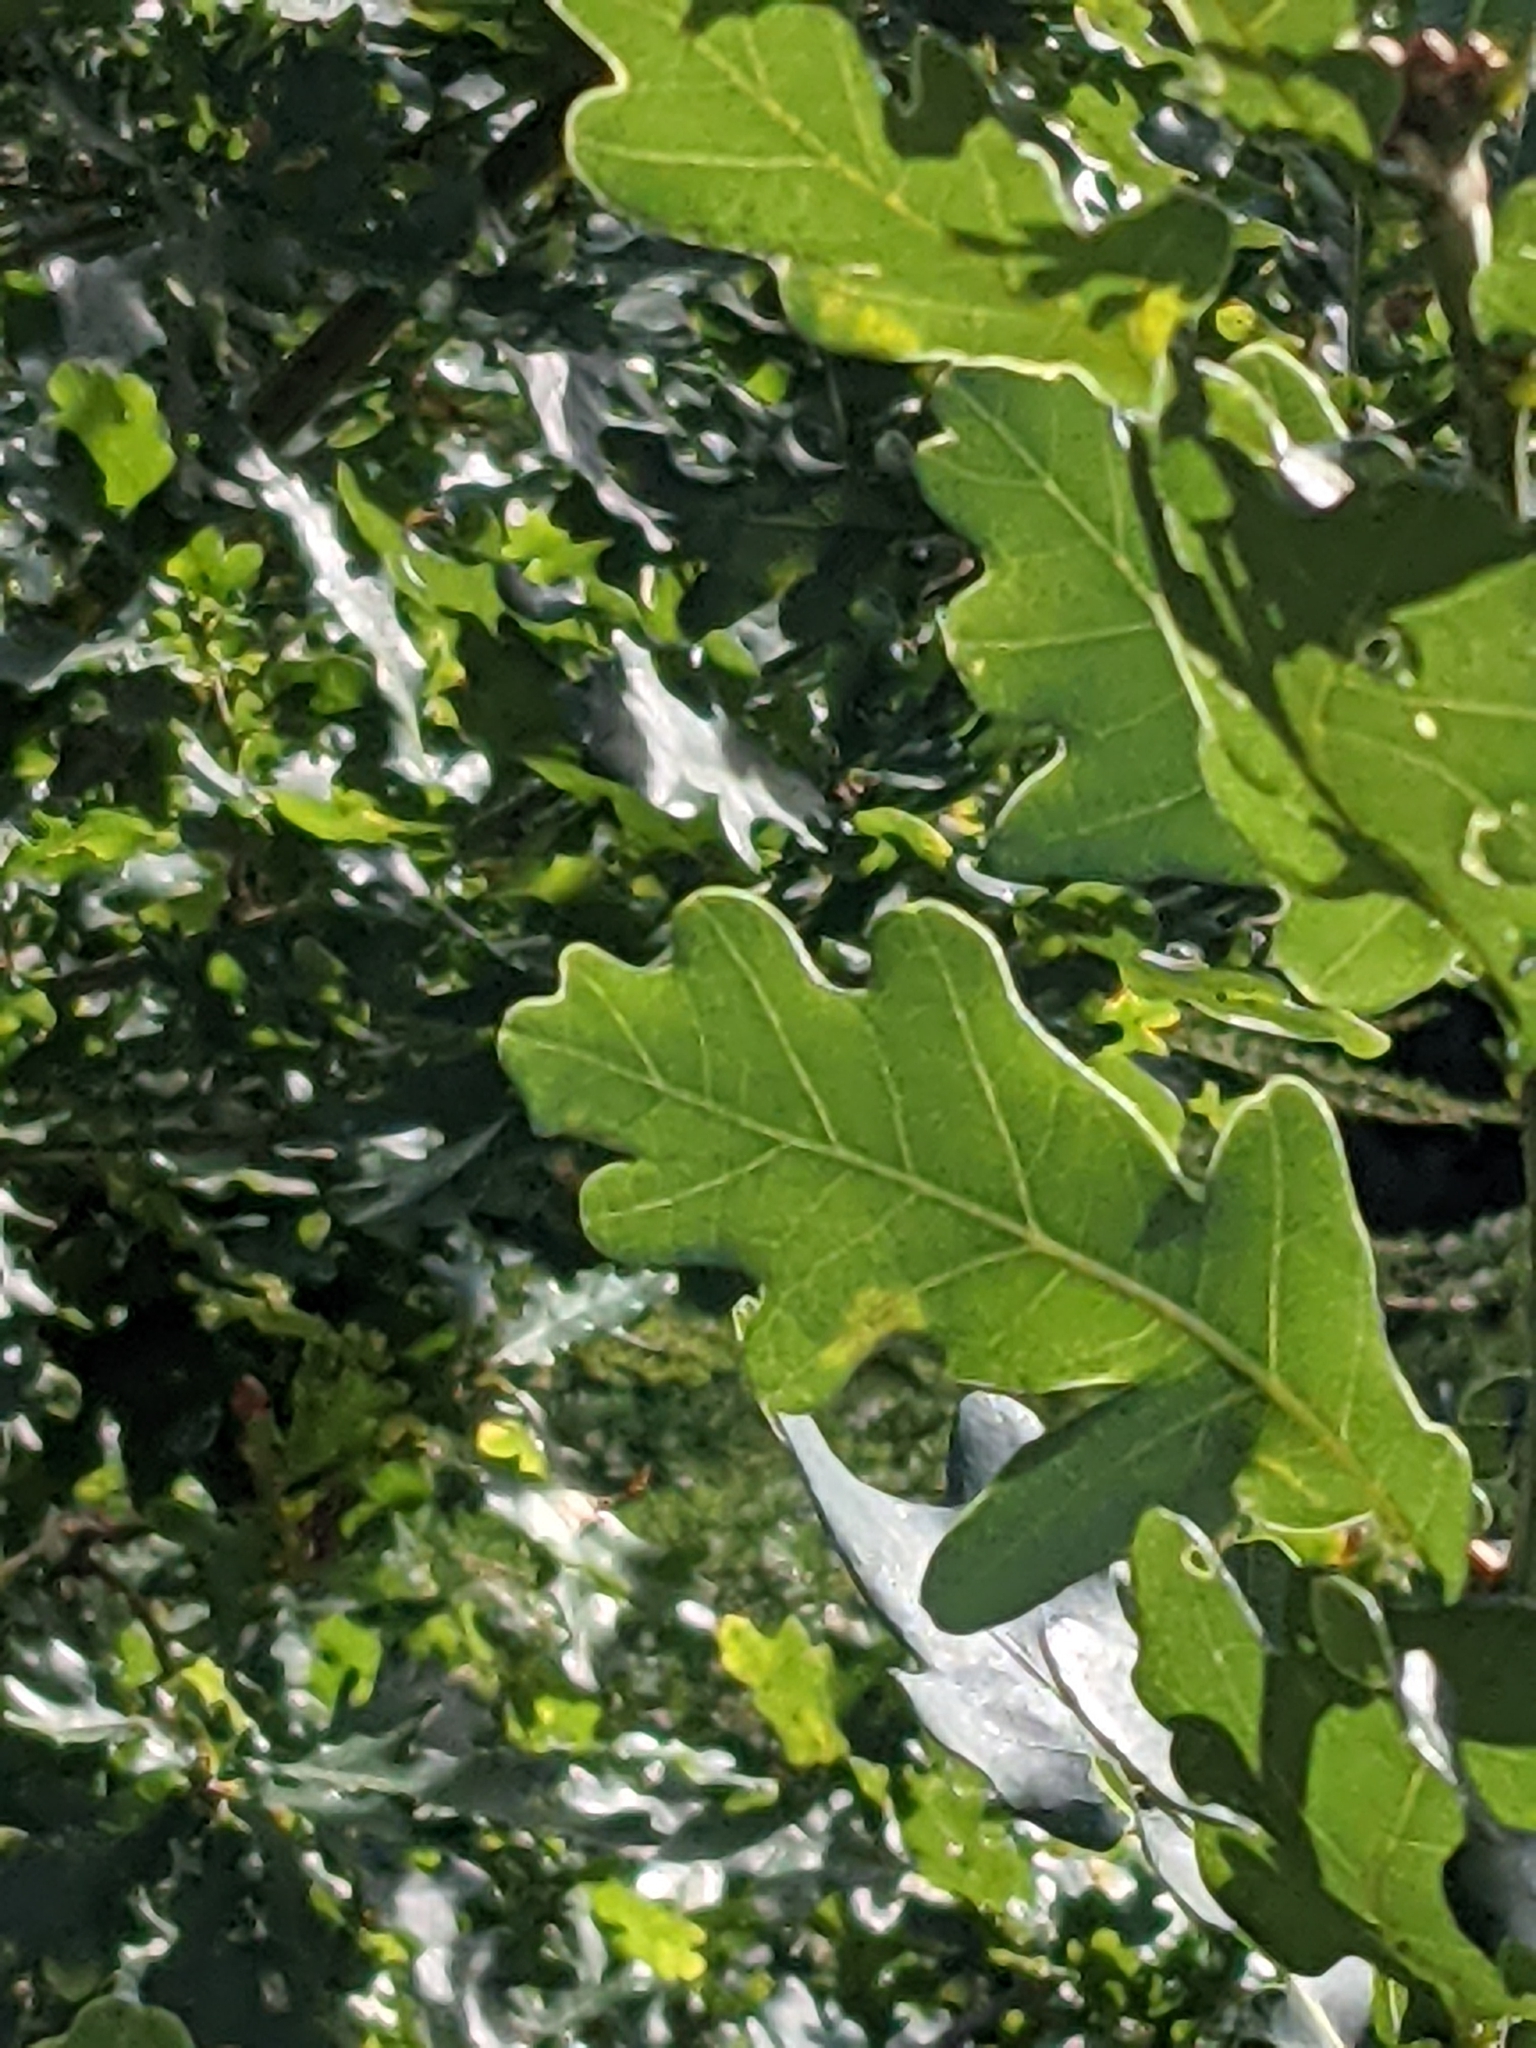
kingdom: Plantae
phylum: Tracheophyta
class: Magnoliopsida
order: Fagales
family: Fagaceae
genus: Quercus
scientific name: Quercus robur
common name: Pedunculate oak
